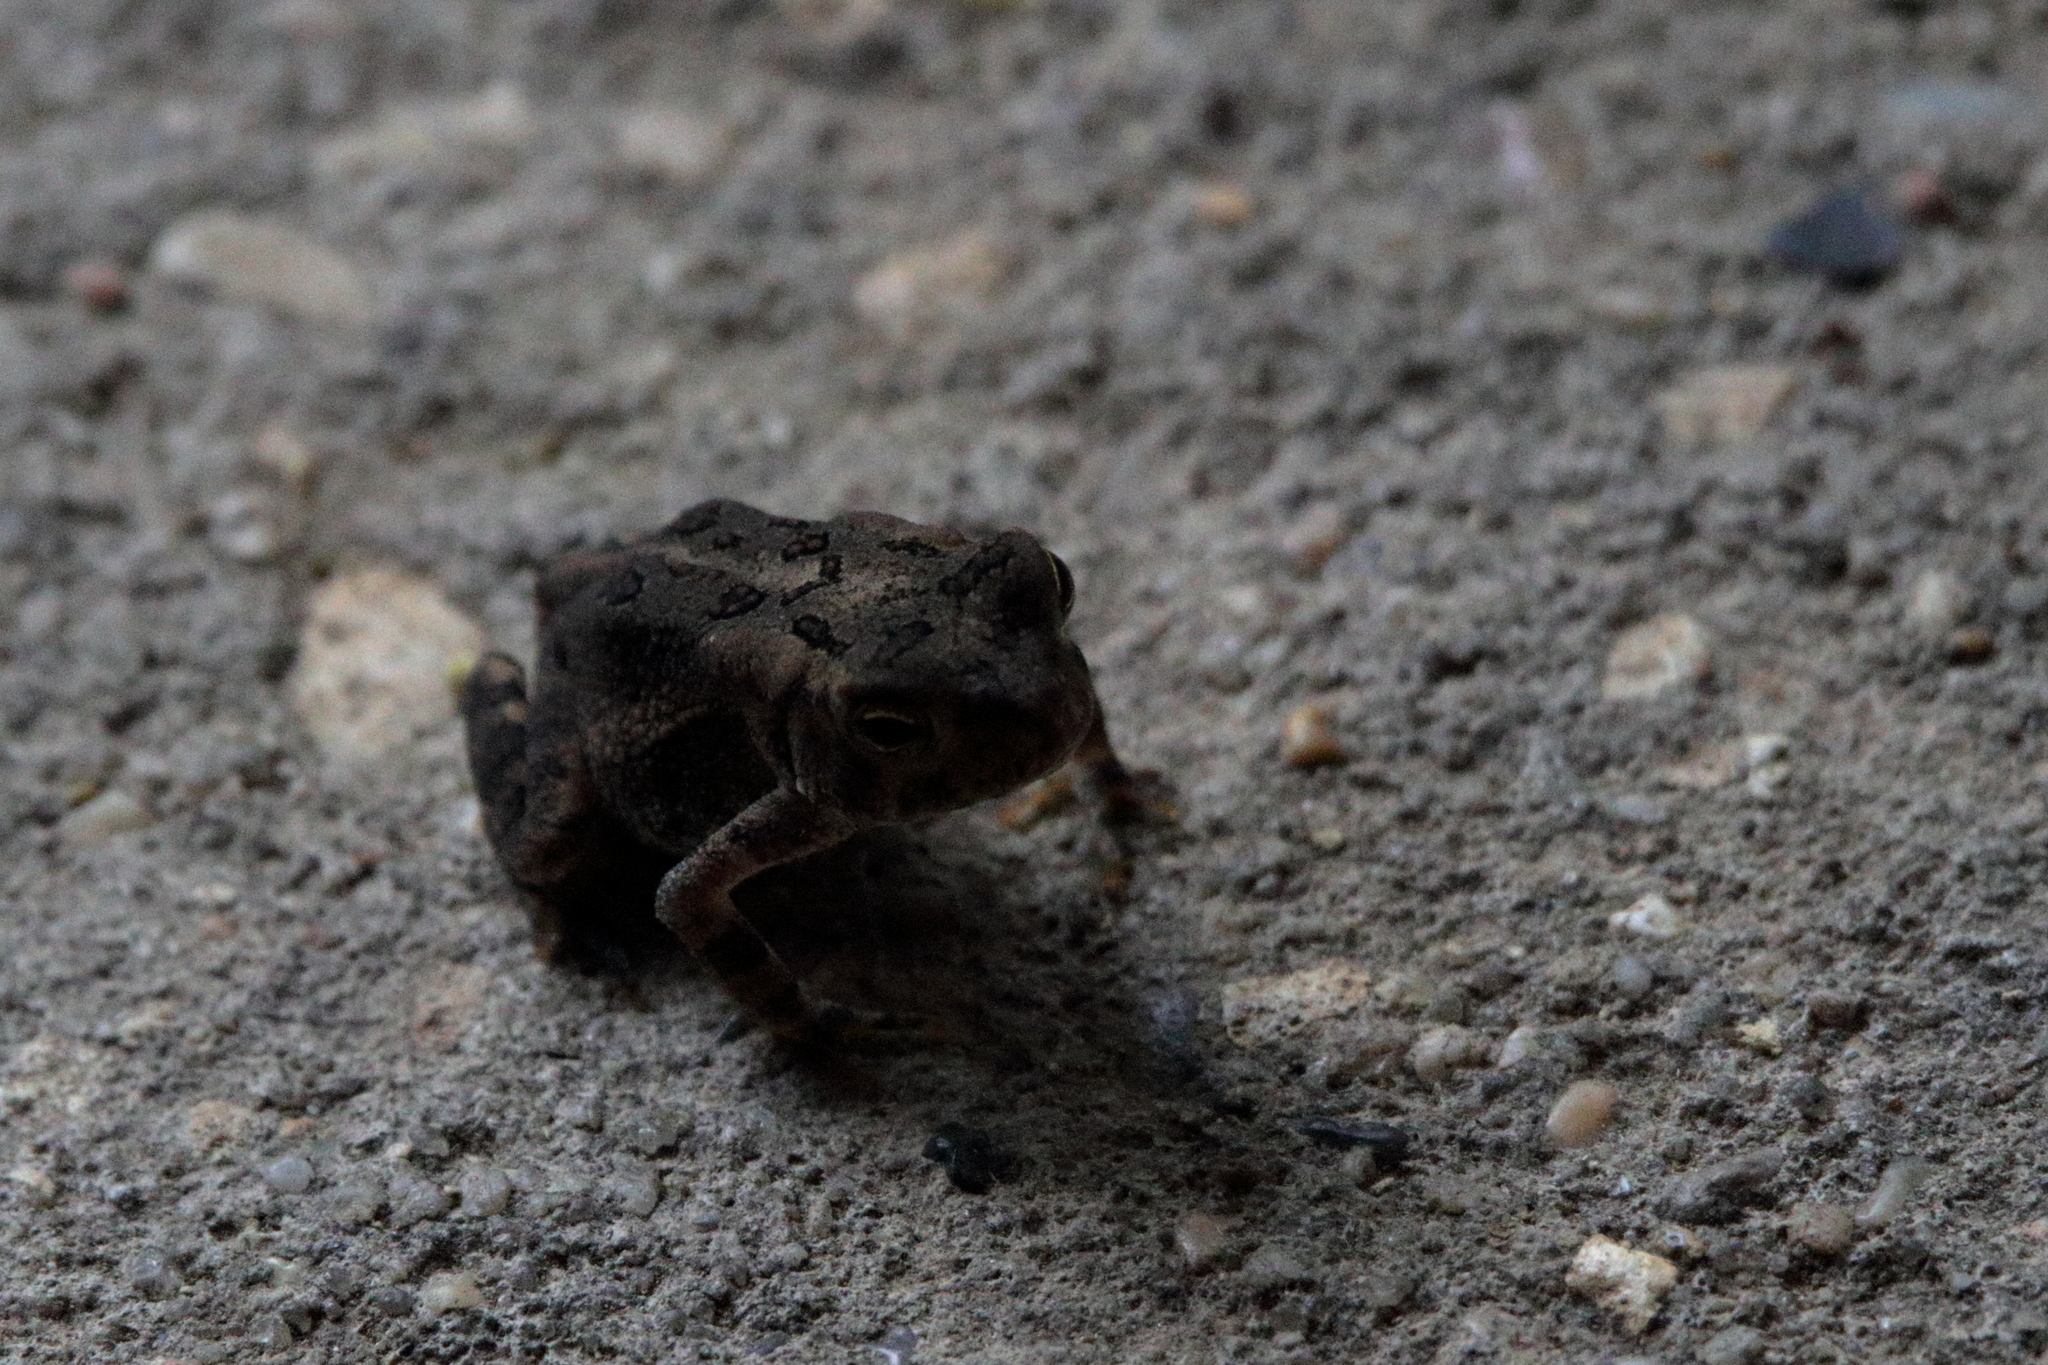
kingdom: Animalia
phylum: Chordata
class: Amphibia
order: Anura
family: Bufonidae
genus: Anaxyrus
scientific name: Anaxyrus terrestris
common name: Southern toad
